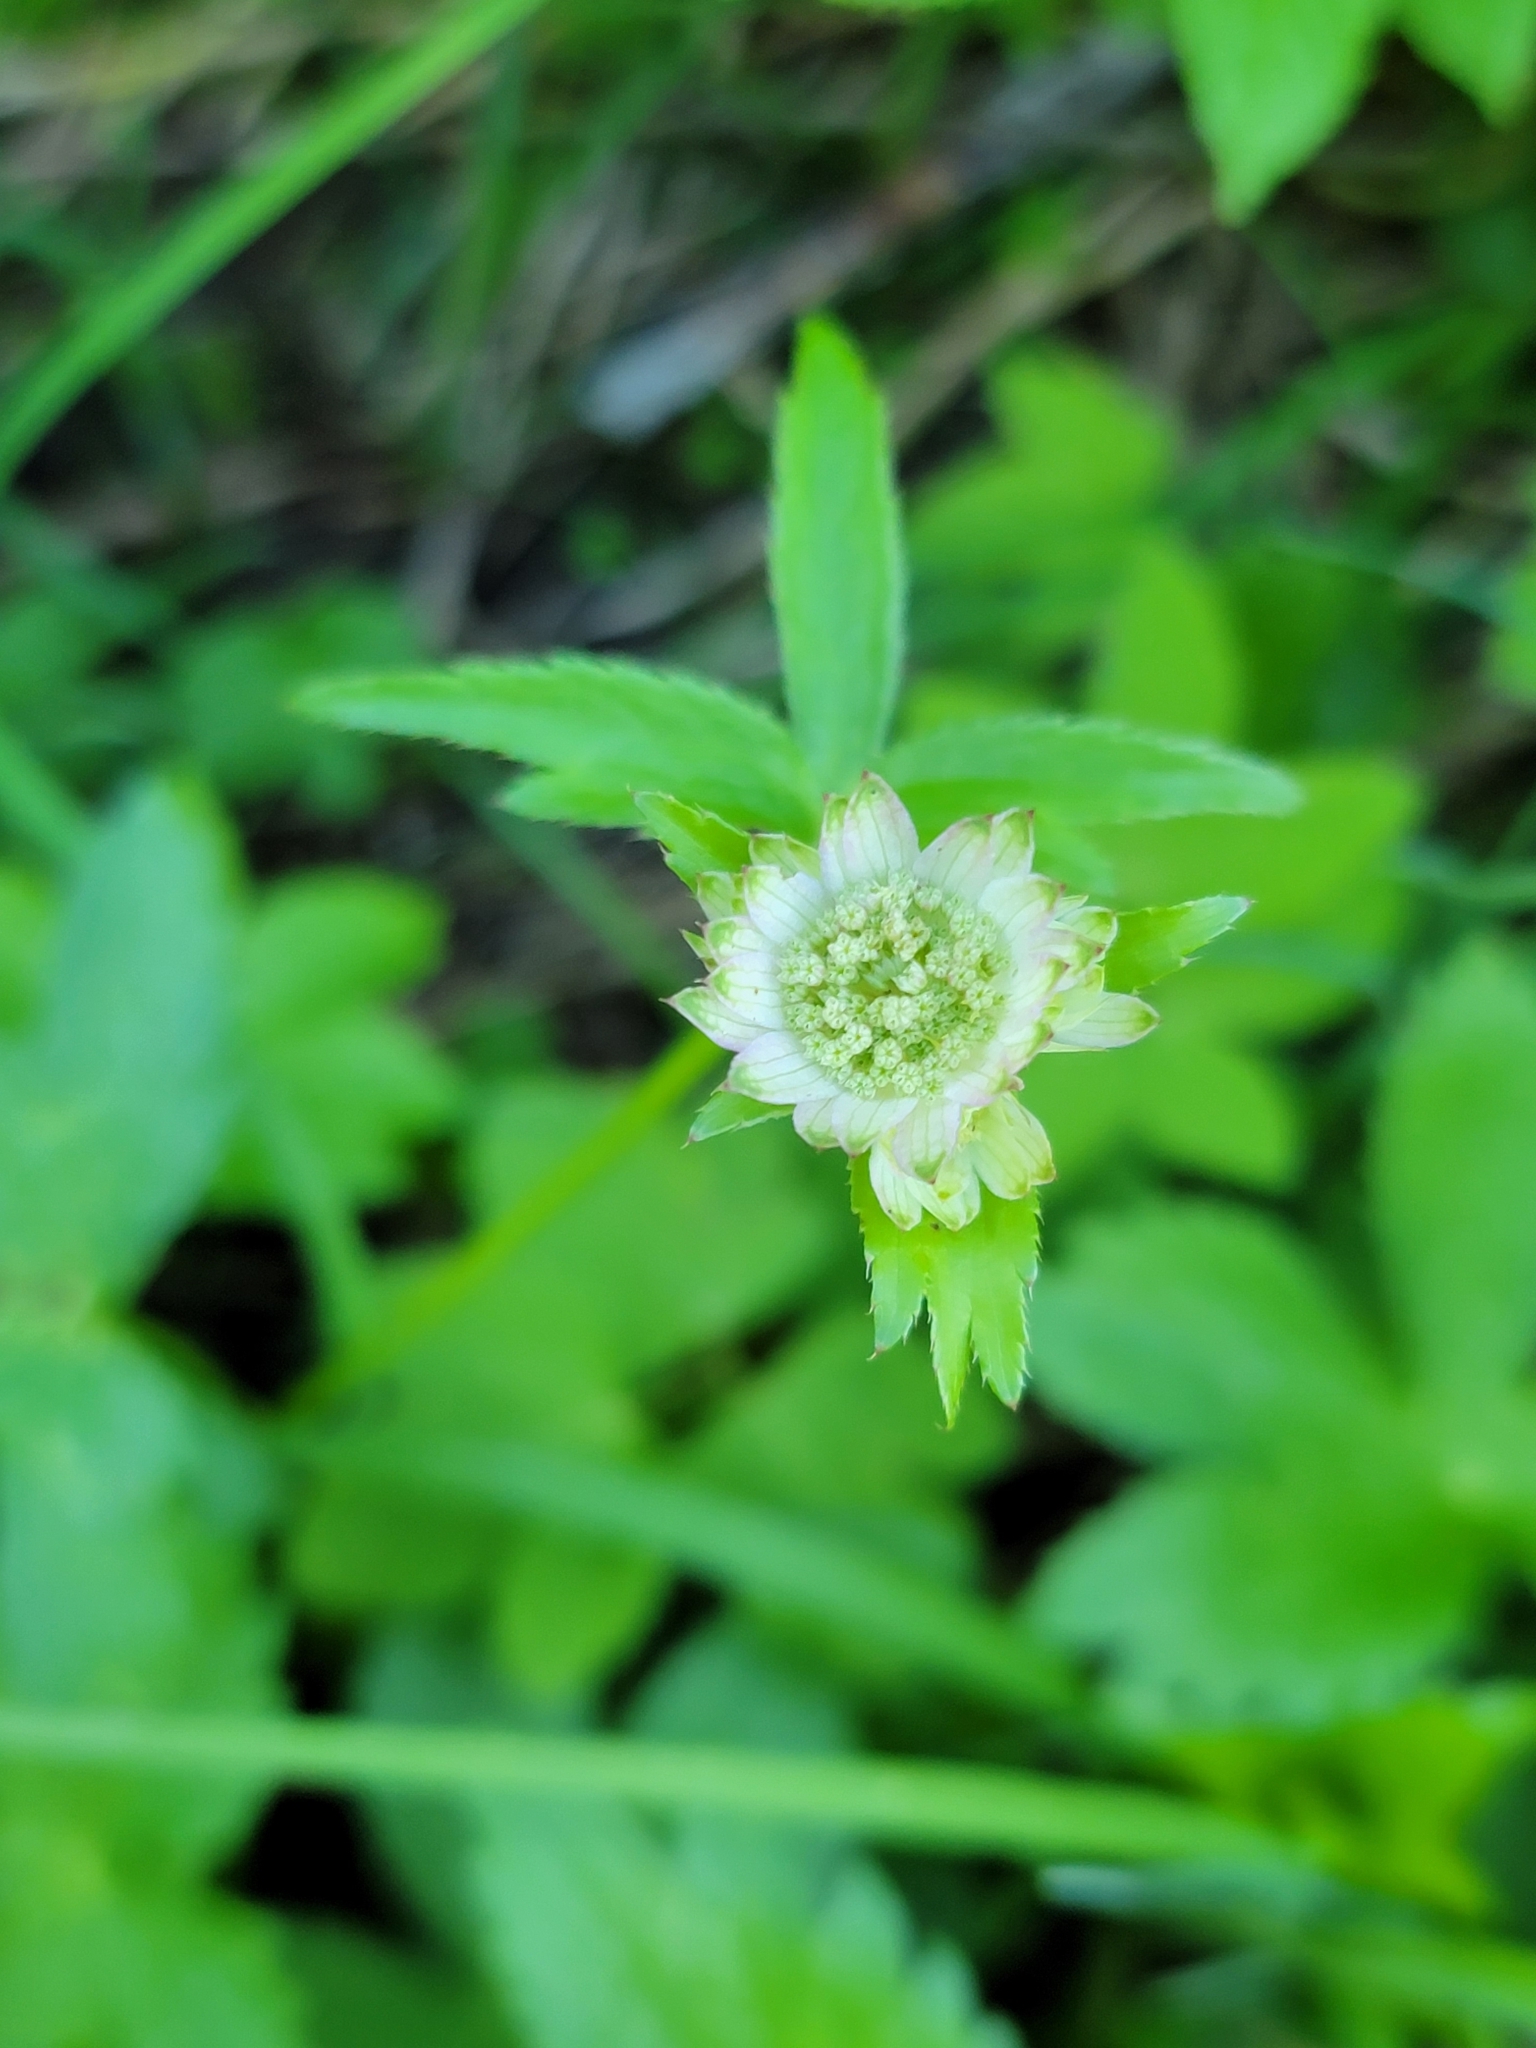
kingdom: Plantae
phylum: Tracheophyta
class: Magnoliopsida
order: Apiales
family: Apiaceae
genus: Astrantia
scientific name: Astrantia major
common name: Greater masterwort
